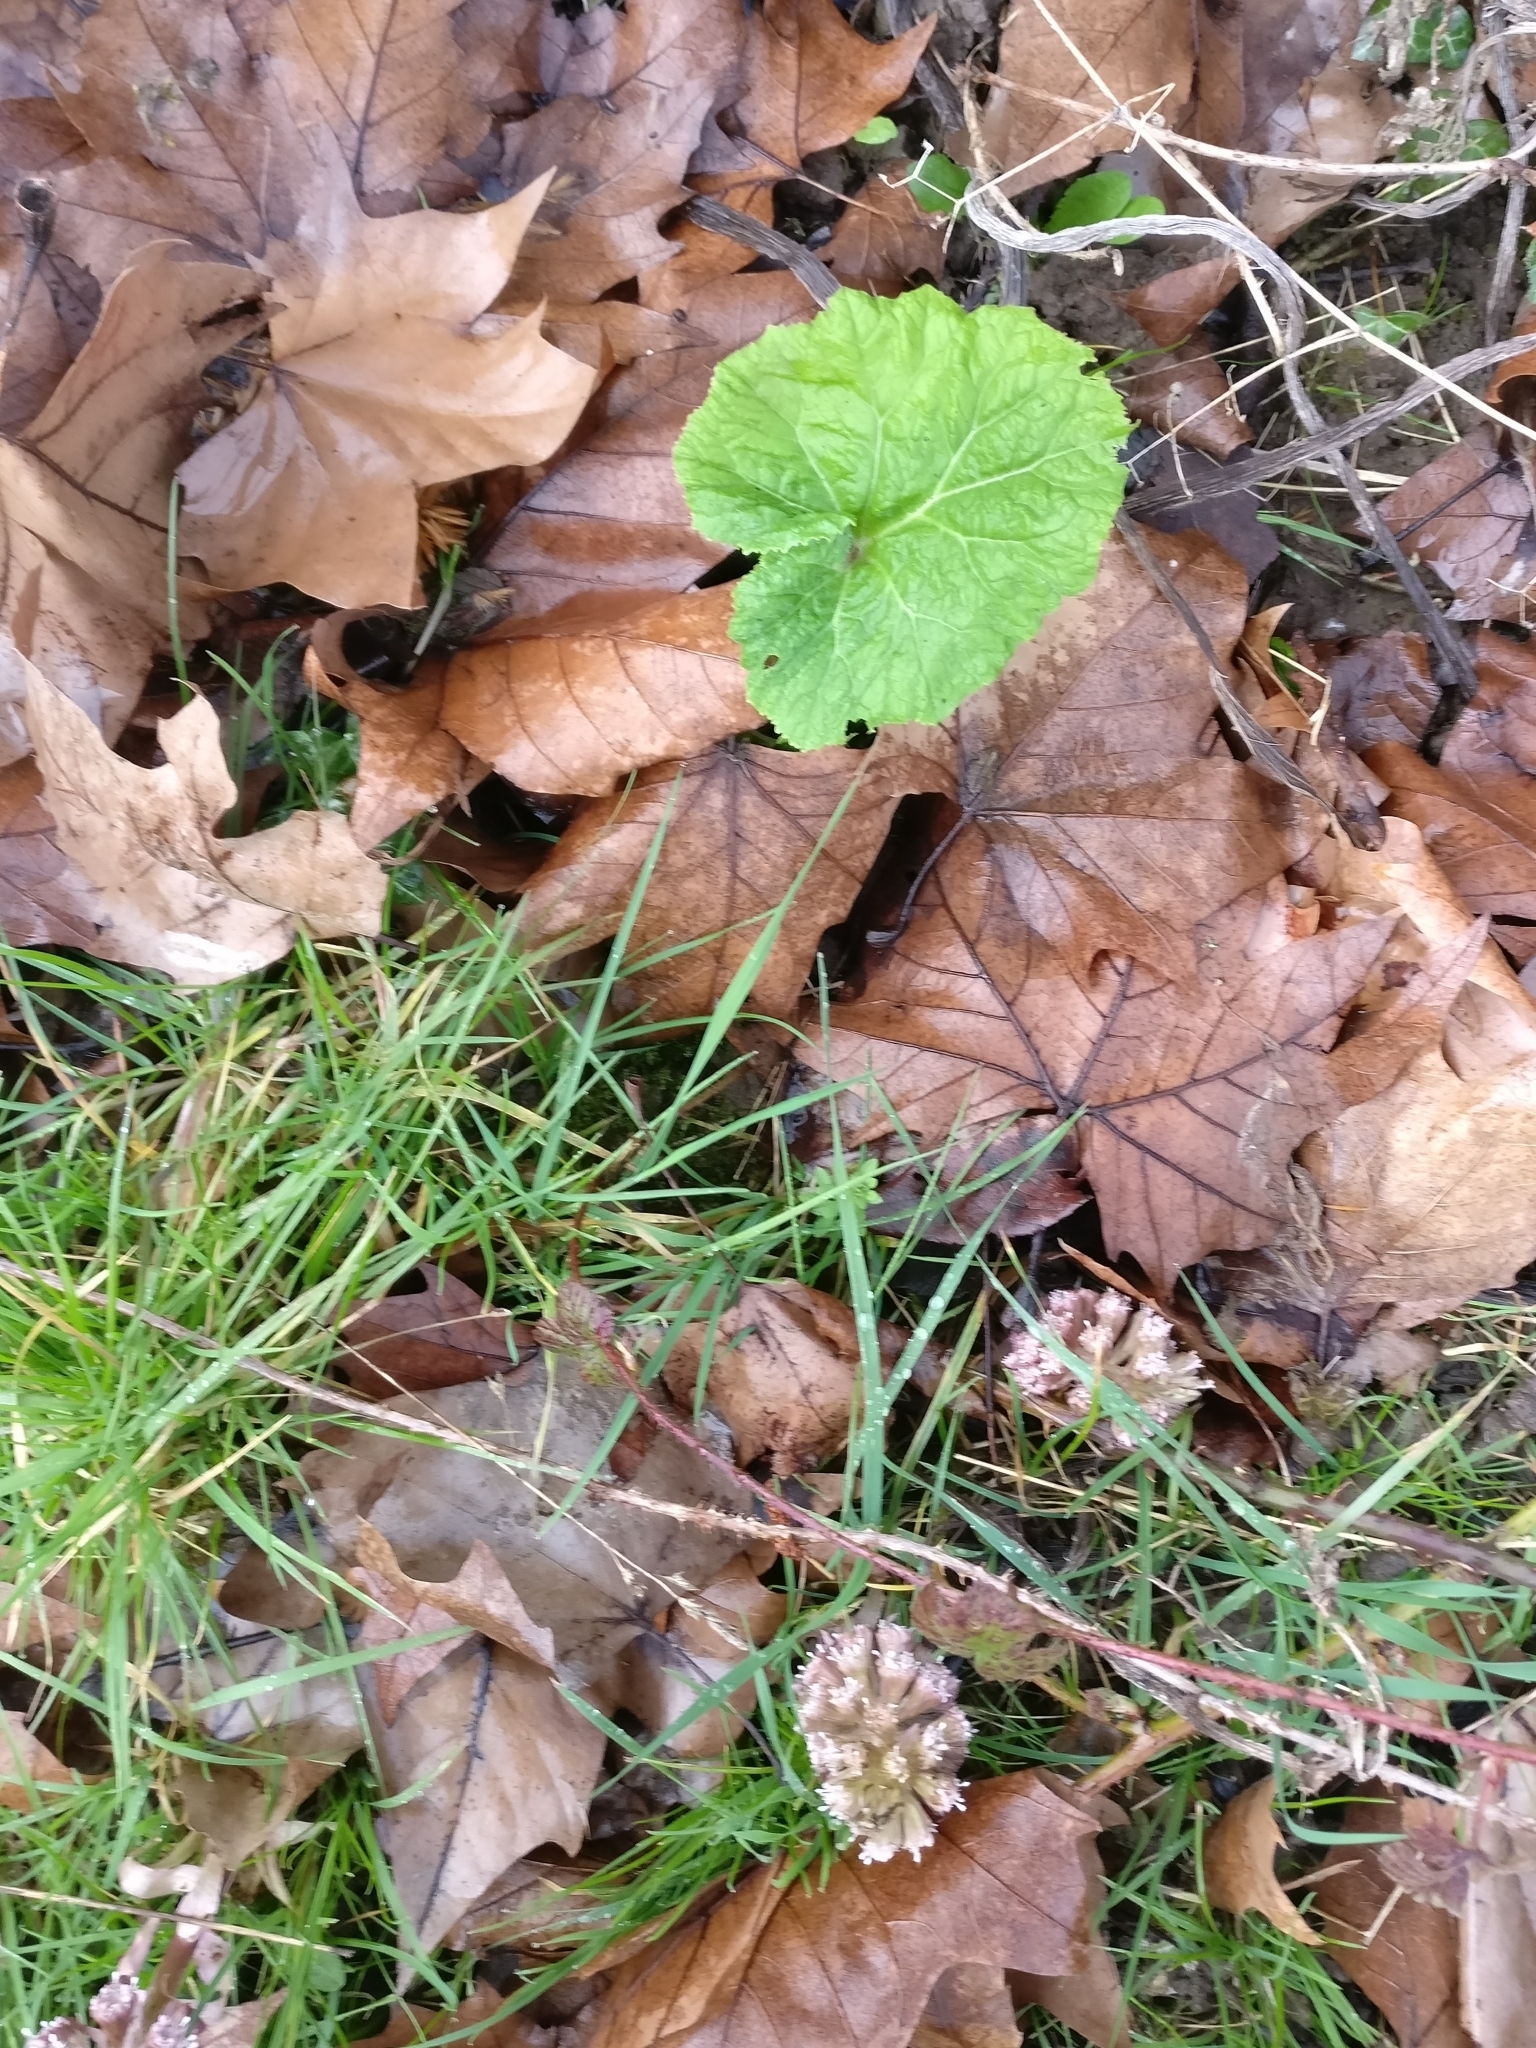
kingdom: Plantae
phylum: Tracheophyta
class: Magnoliopsida
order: Asterales
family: Asteraceae
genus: Petasites
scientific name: Petasites hybridus
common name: Butterbur
